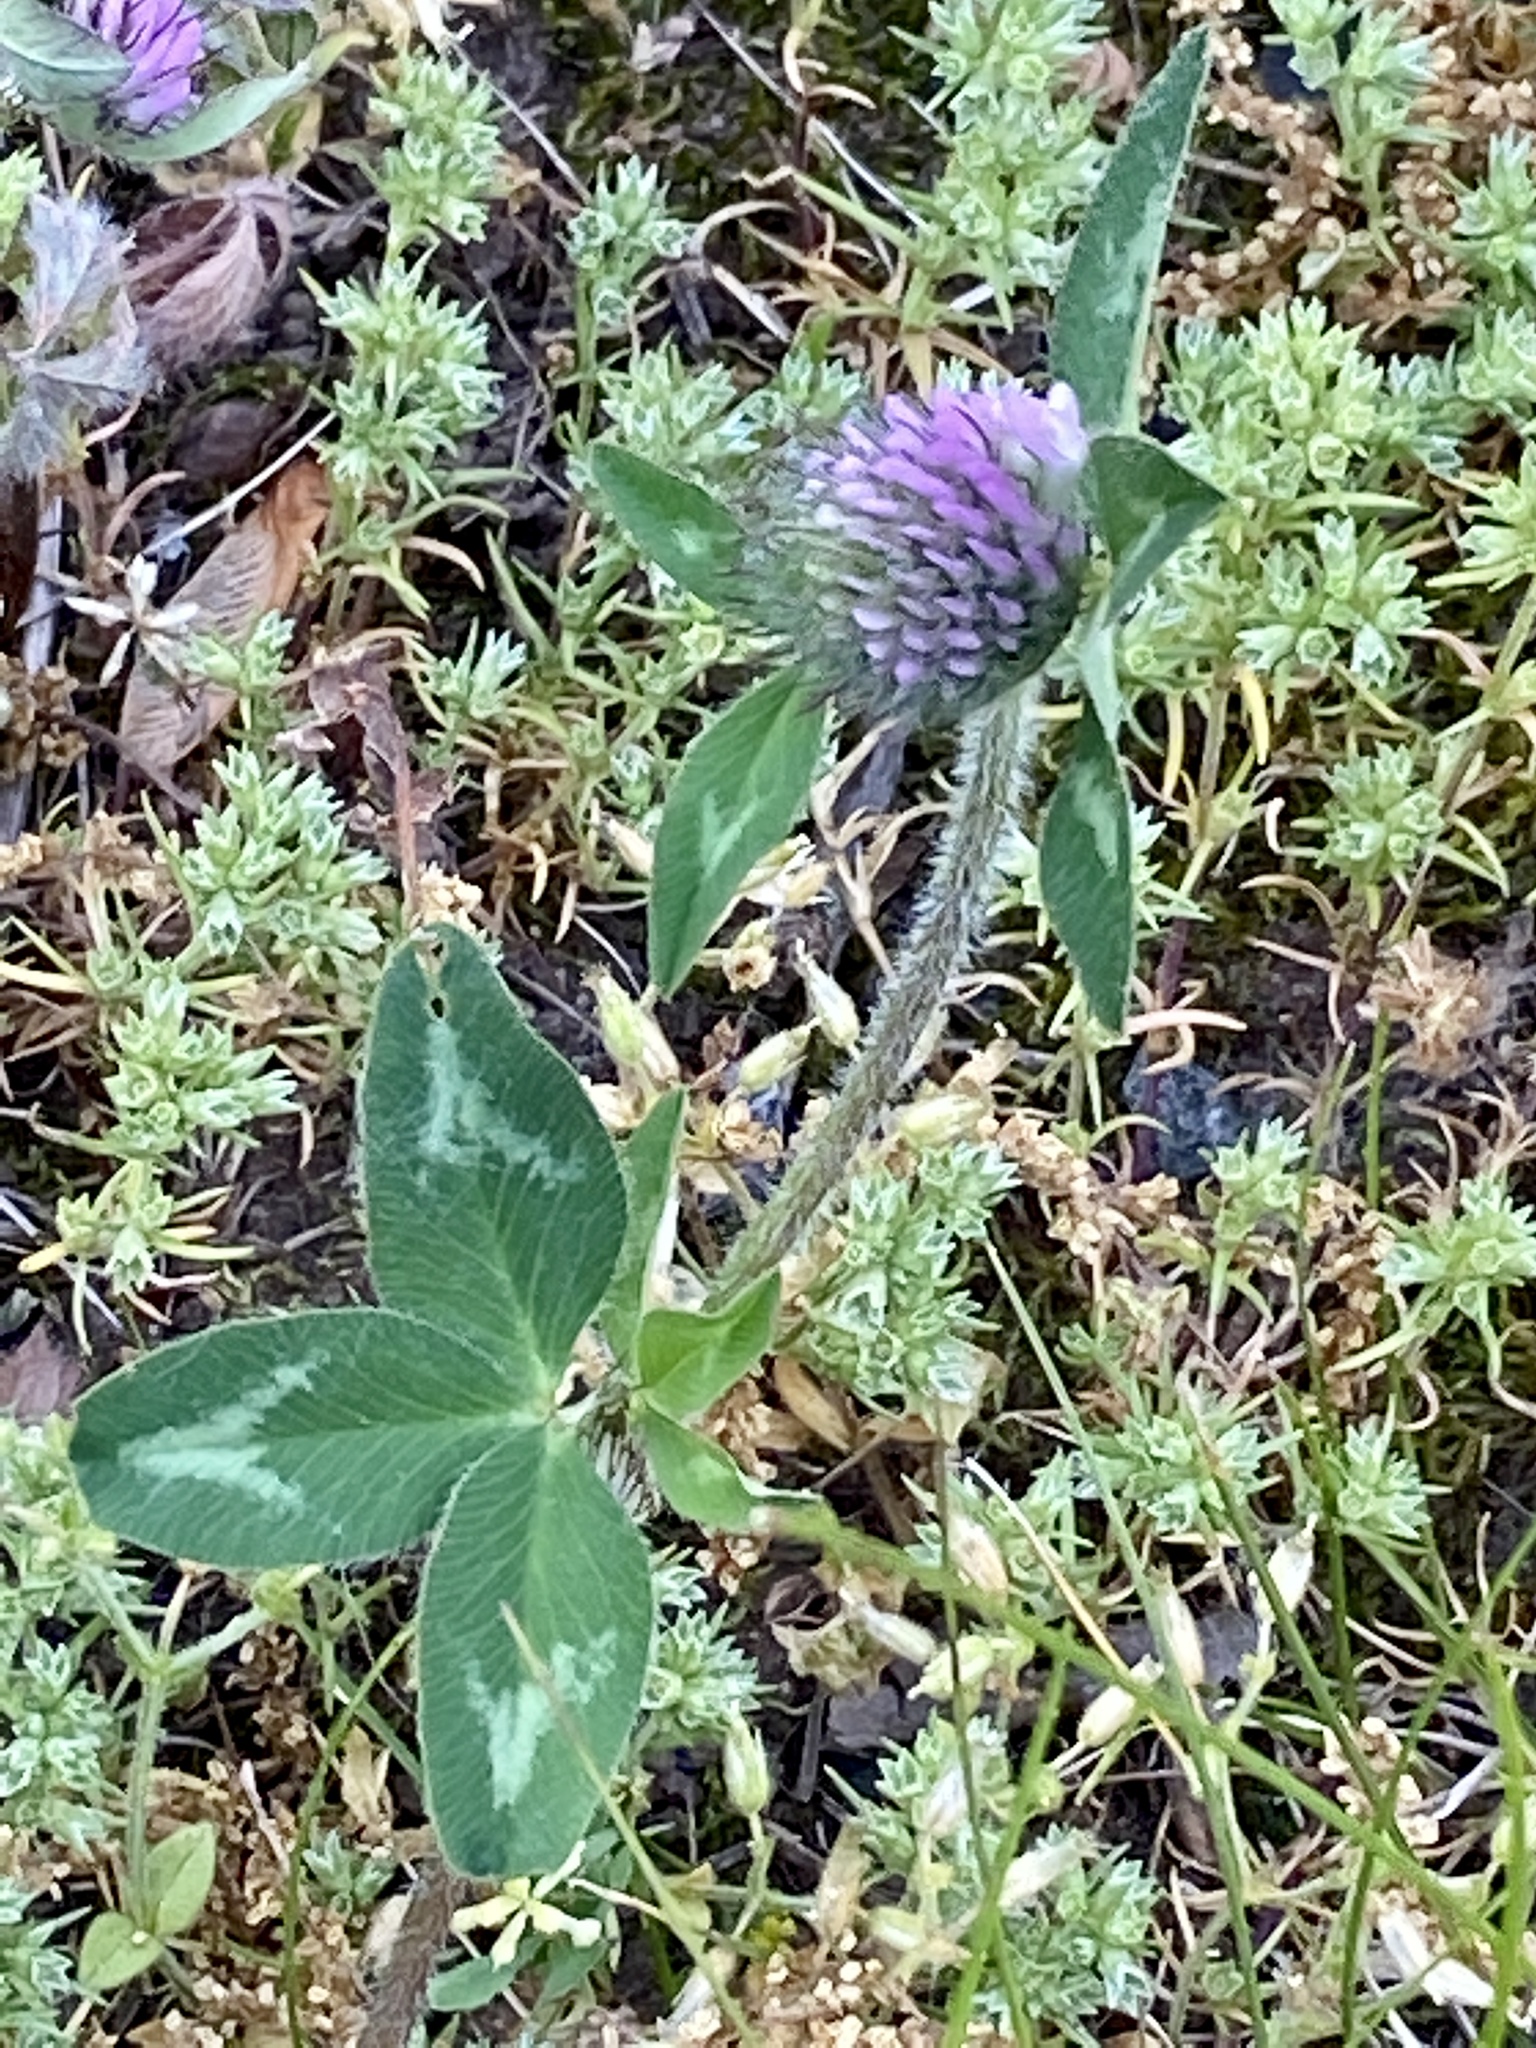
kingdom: Plantae
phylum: Tracheophyta
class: Magnoliopsida
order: Fabales
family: Fabaceae
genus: Trifolium
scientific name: Trifolium pratense
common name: Red clover
